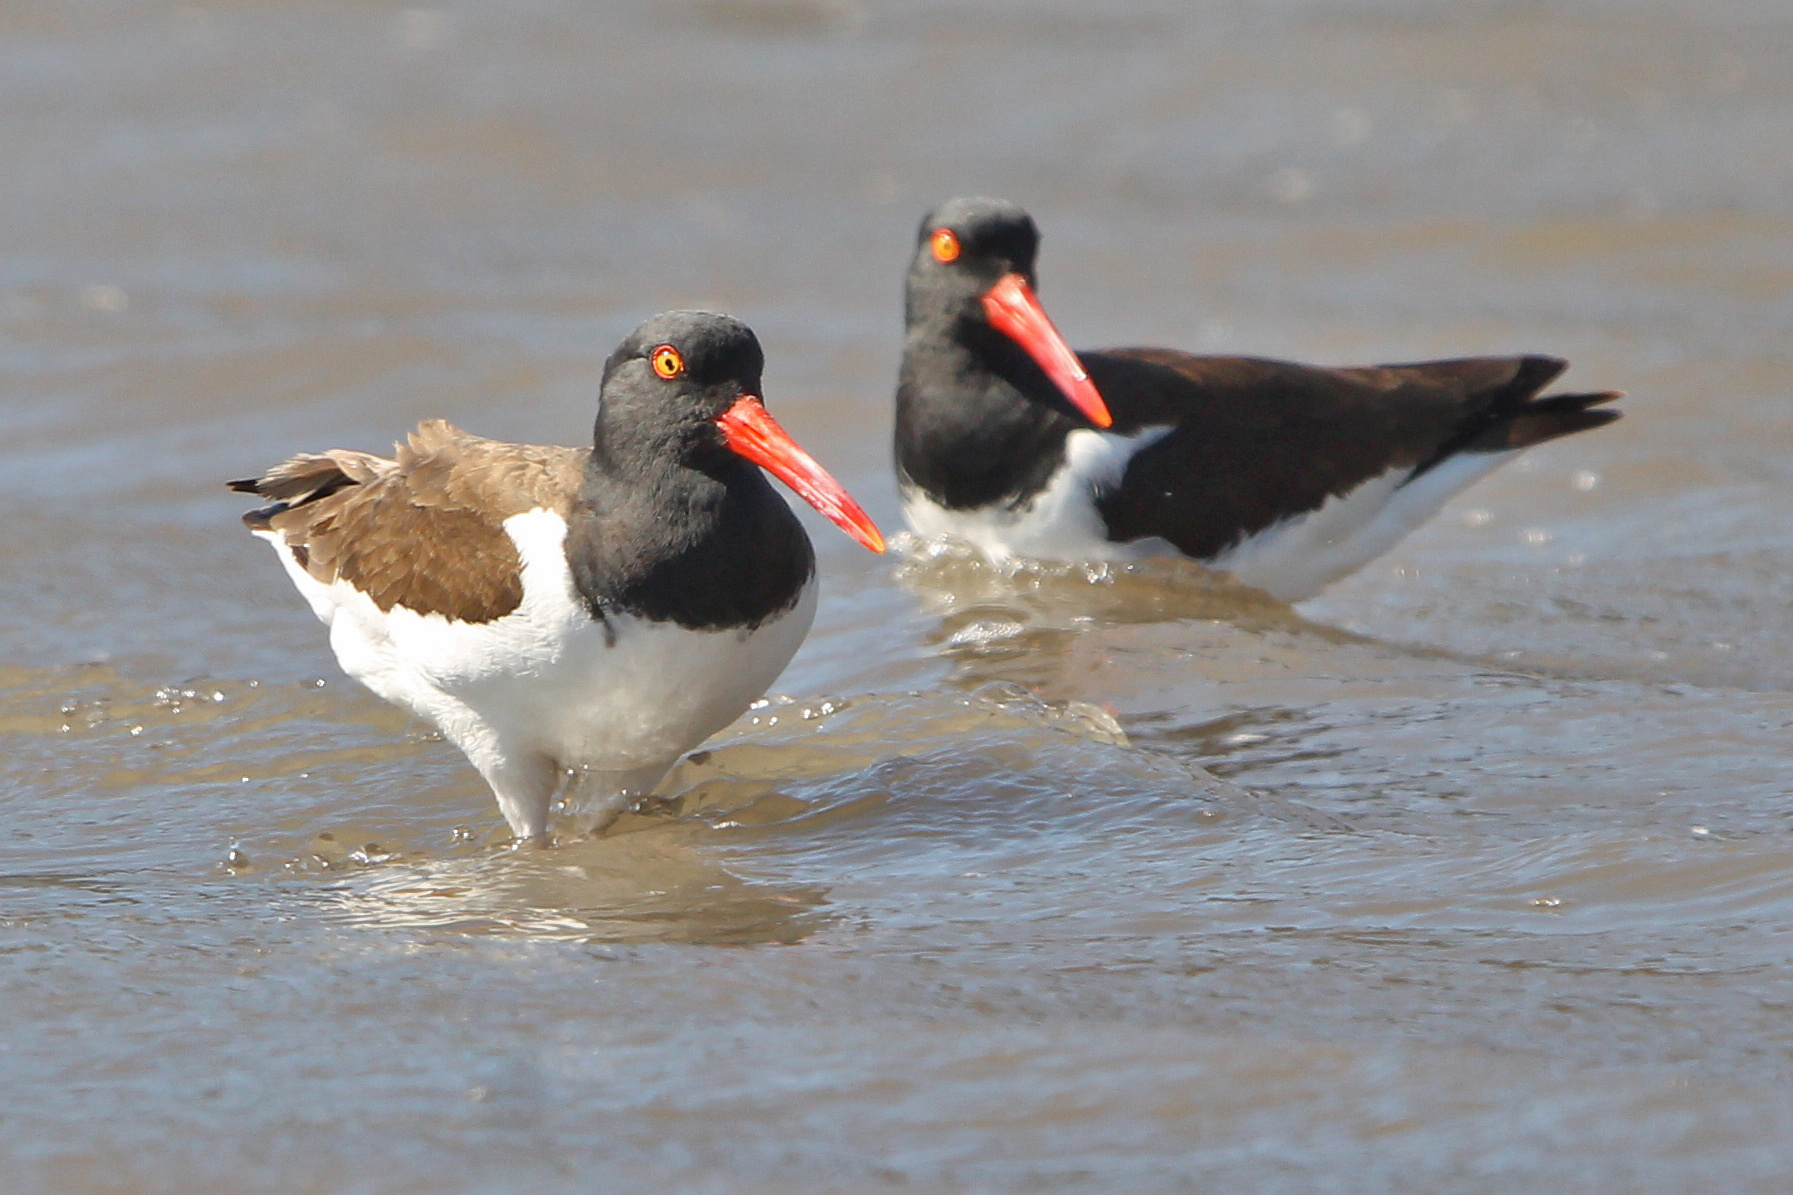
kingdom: Animalia
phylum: Chordata
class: Aves
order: Charadriiformes
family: Haematopodidae
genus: Haematopus
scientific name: Haematopus palliatus
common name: American oystercatcher
